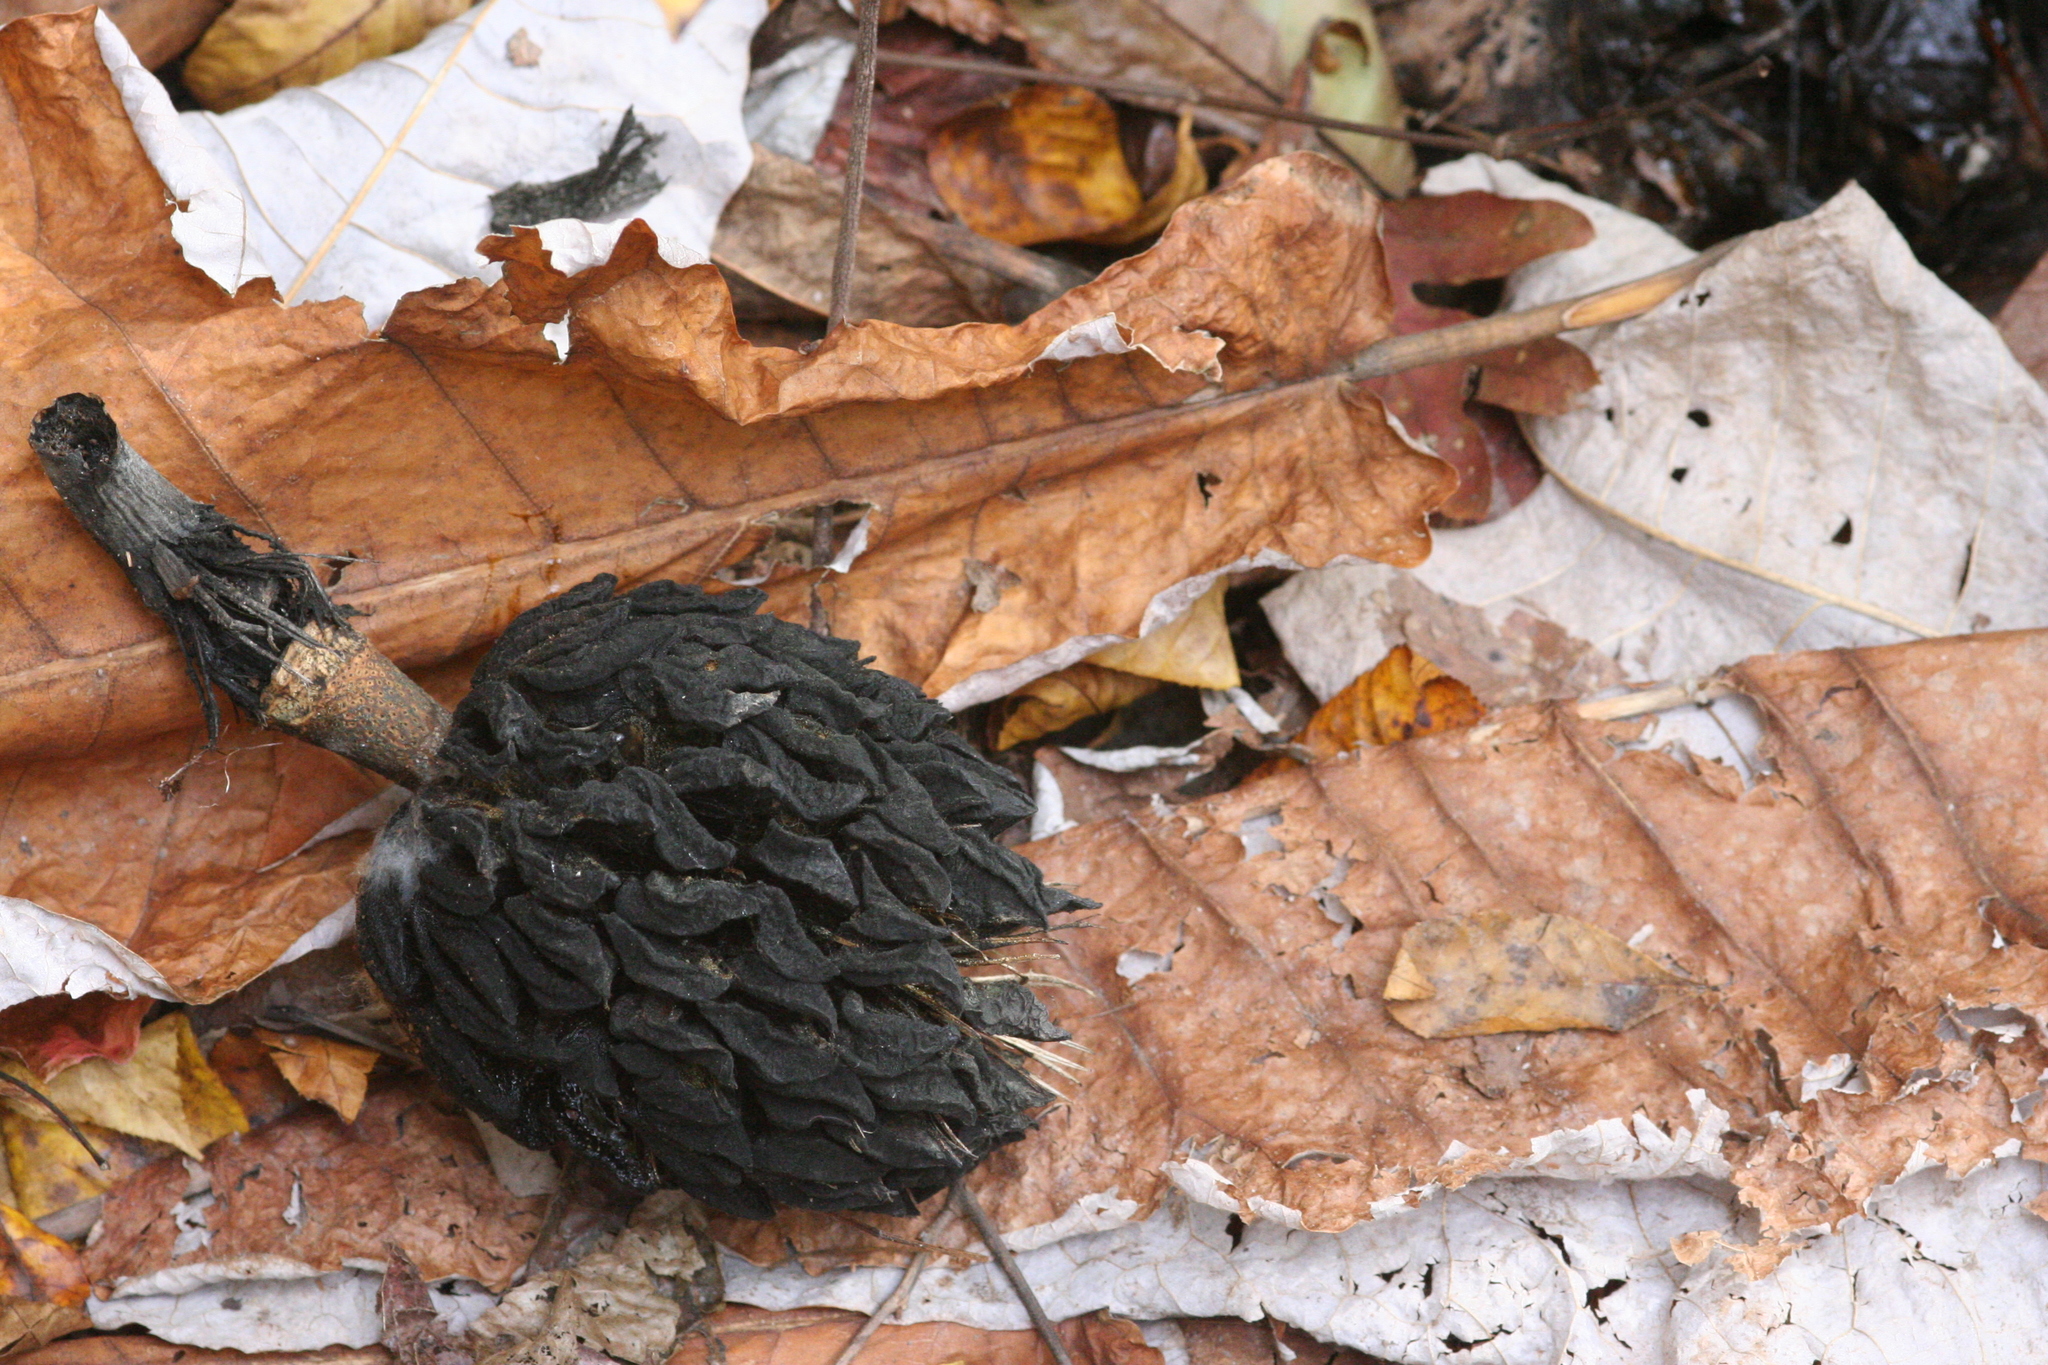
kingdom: Plantae
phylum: Tracheophyta
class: Magnoliopsida
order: Magnoliales
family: Magnoliaceae
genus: Magnolia
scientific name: Magnolia macrophylla
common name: Big-leaf magnolia
